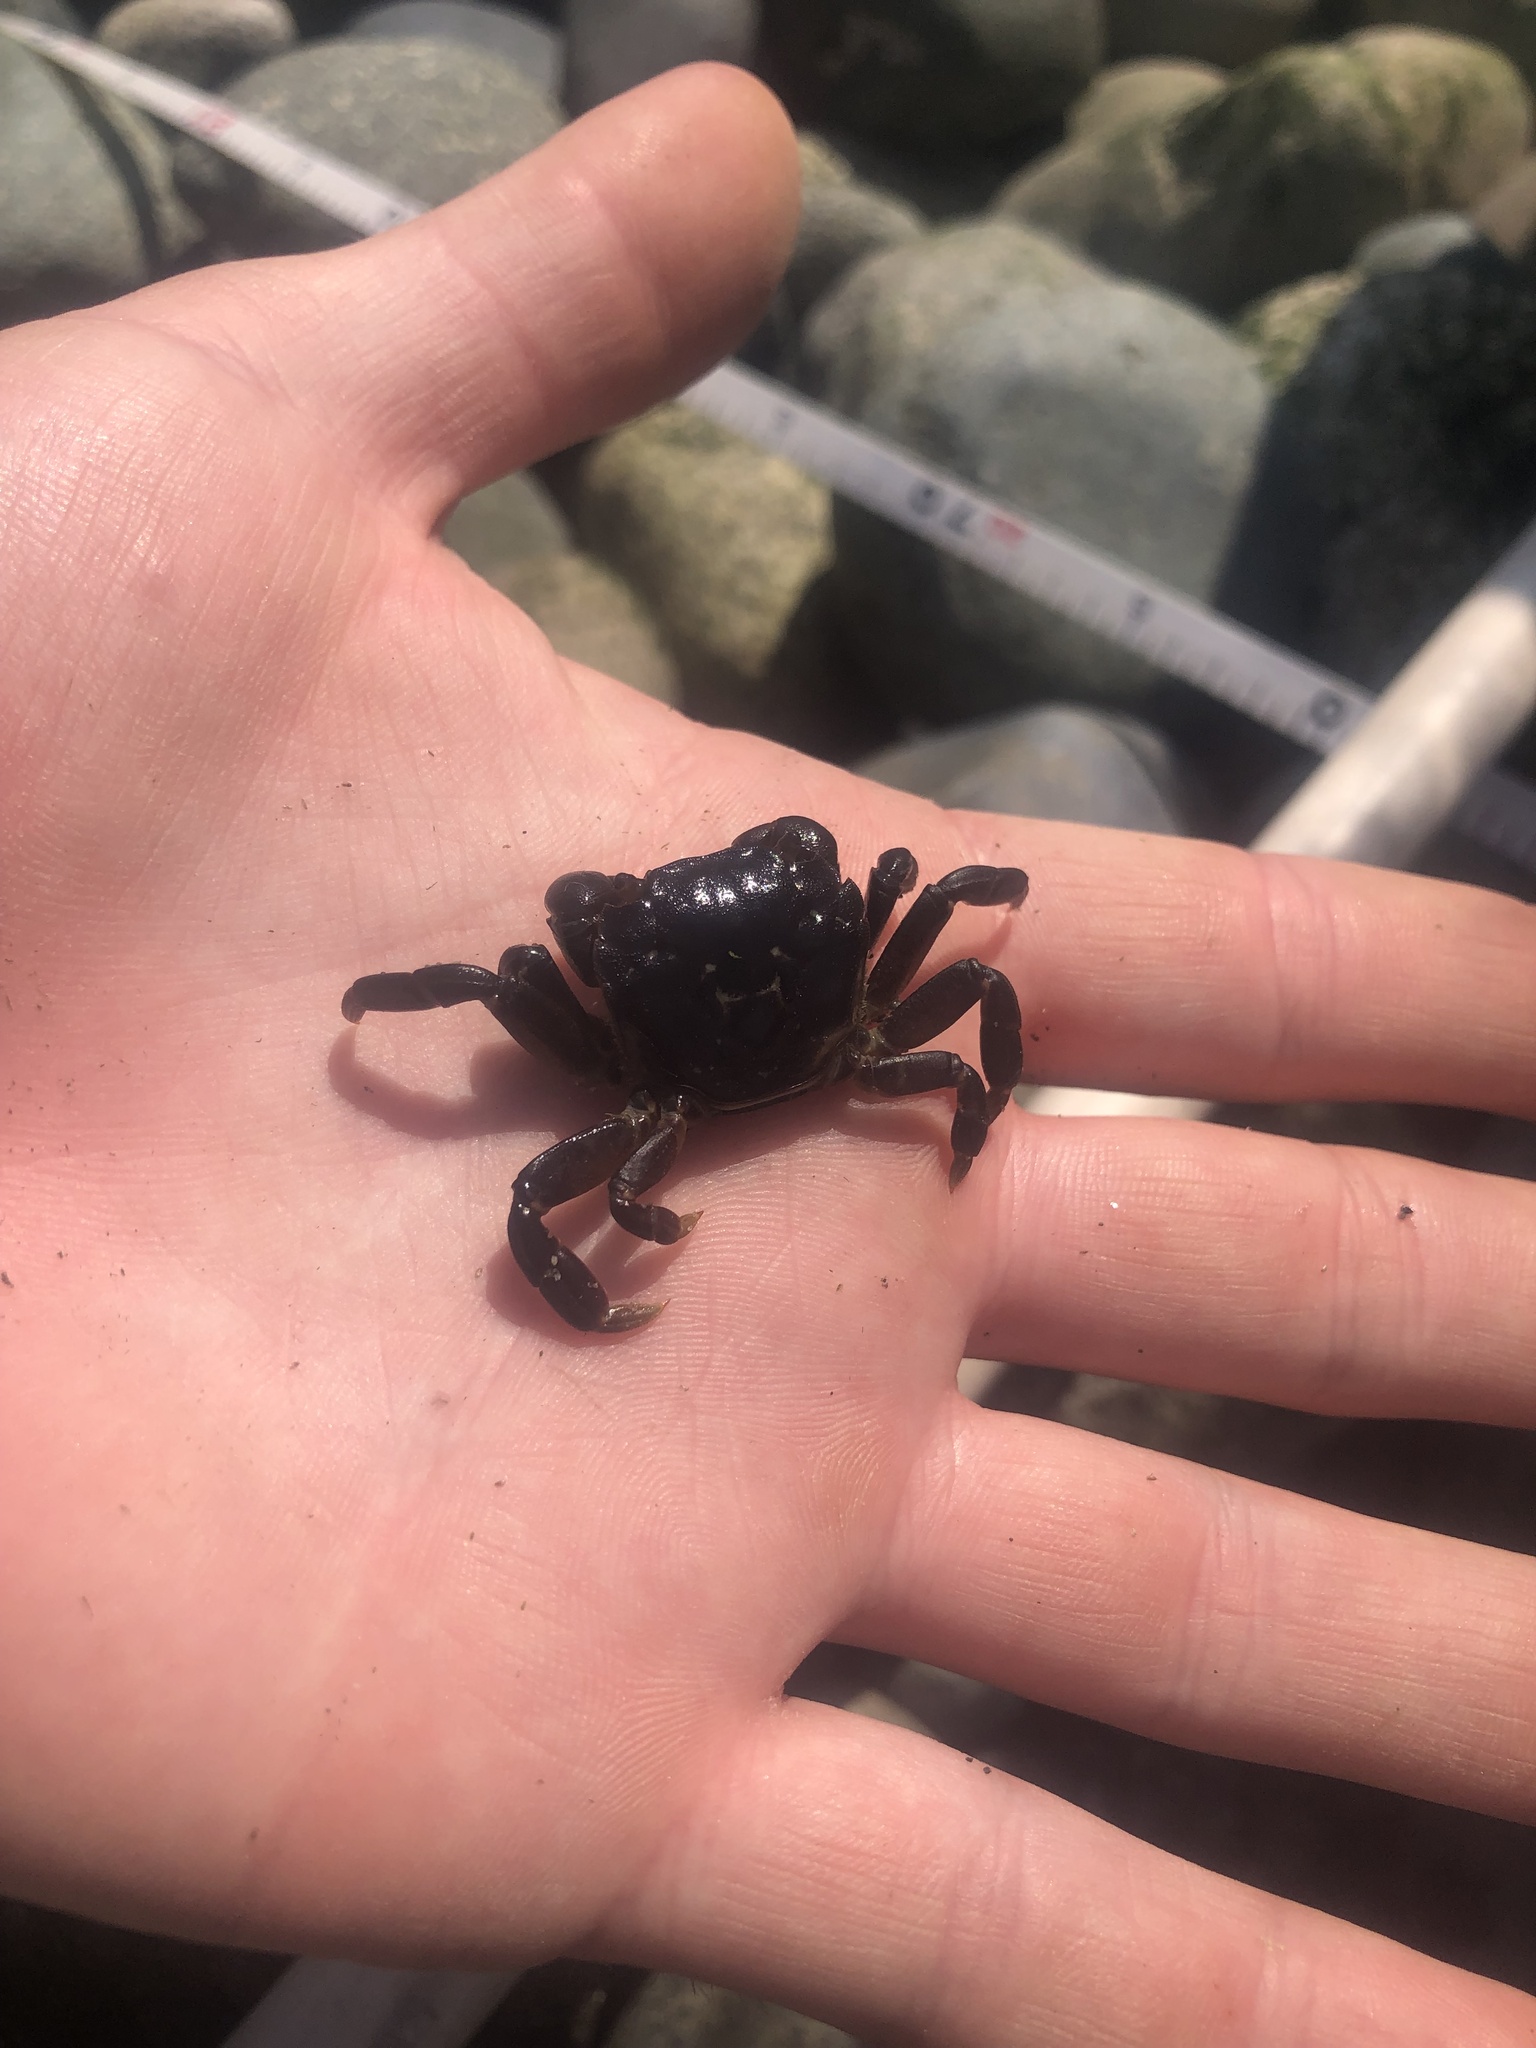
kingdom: Animalia
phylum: Arthropoda
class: Malacostraca
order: Decapoda
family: Varunidae
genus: Hemigrapsus
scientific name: Hemigrapsus nudus
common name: Purple shore crab
